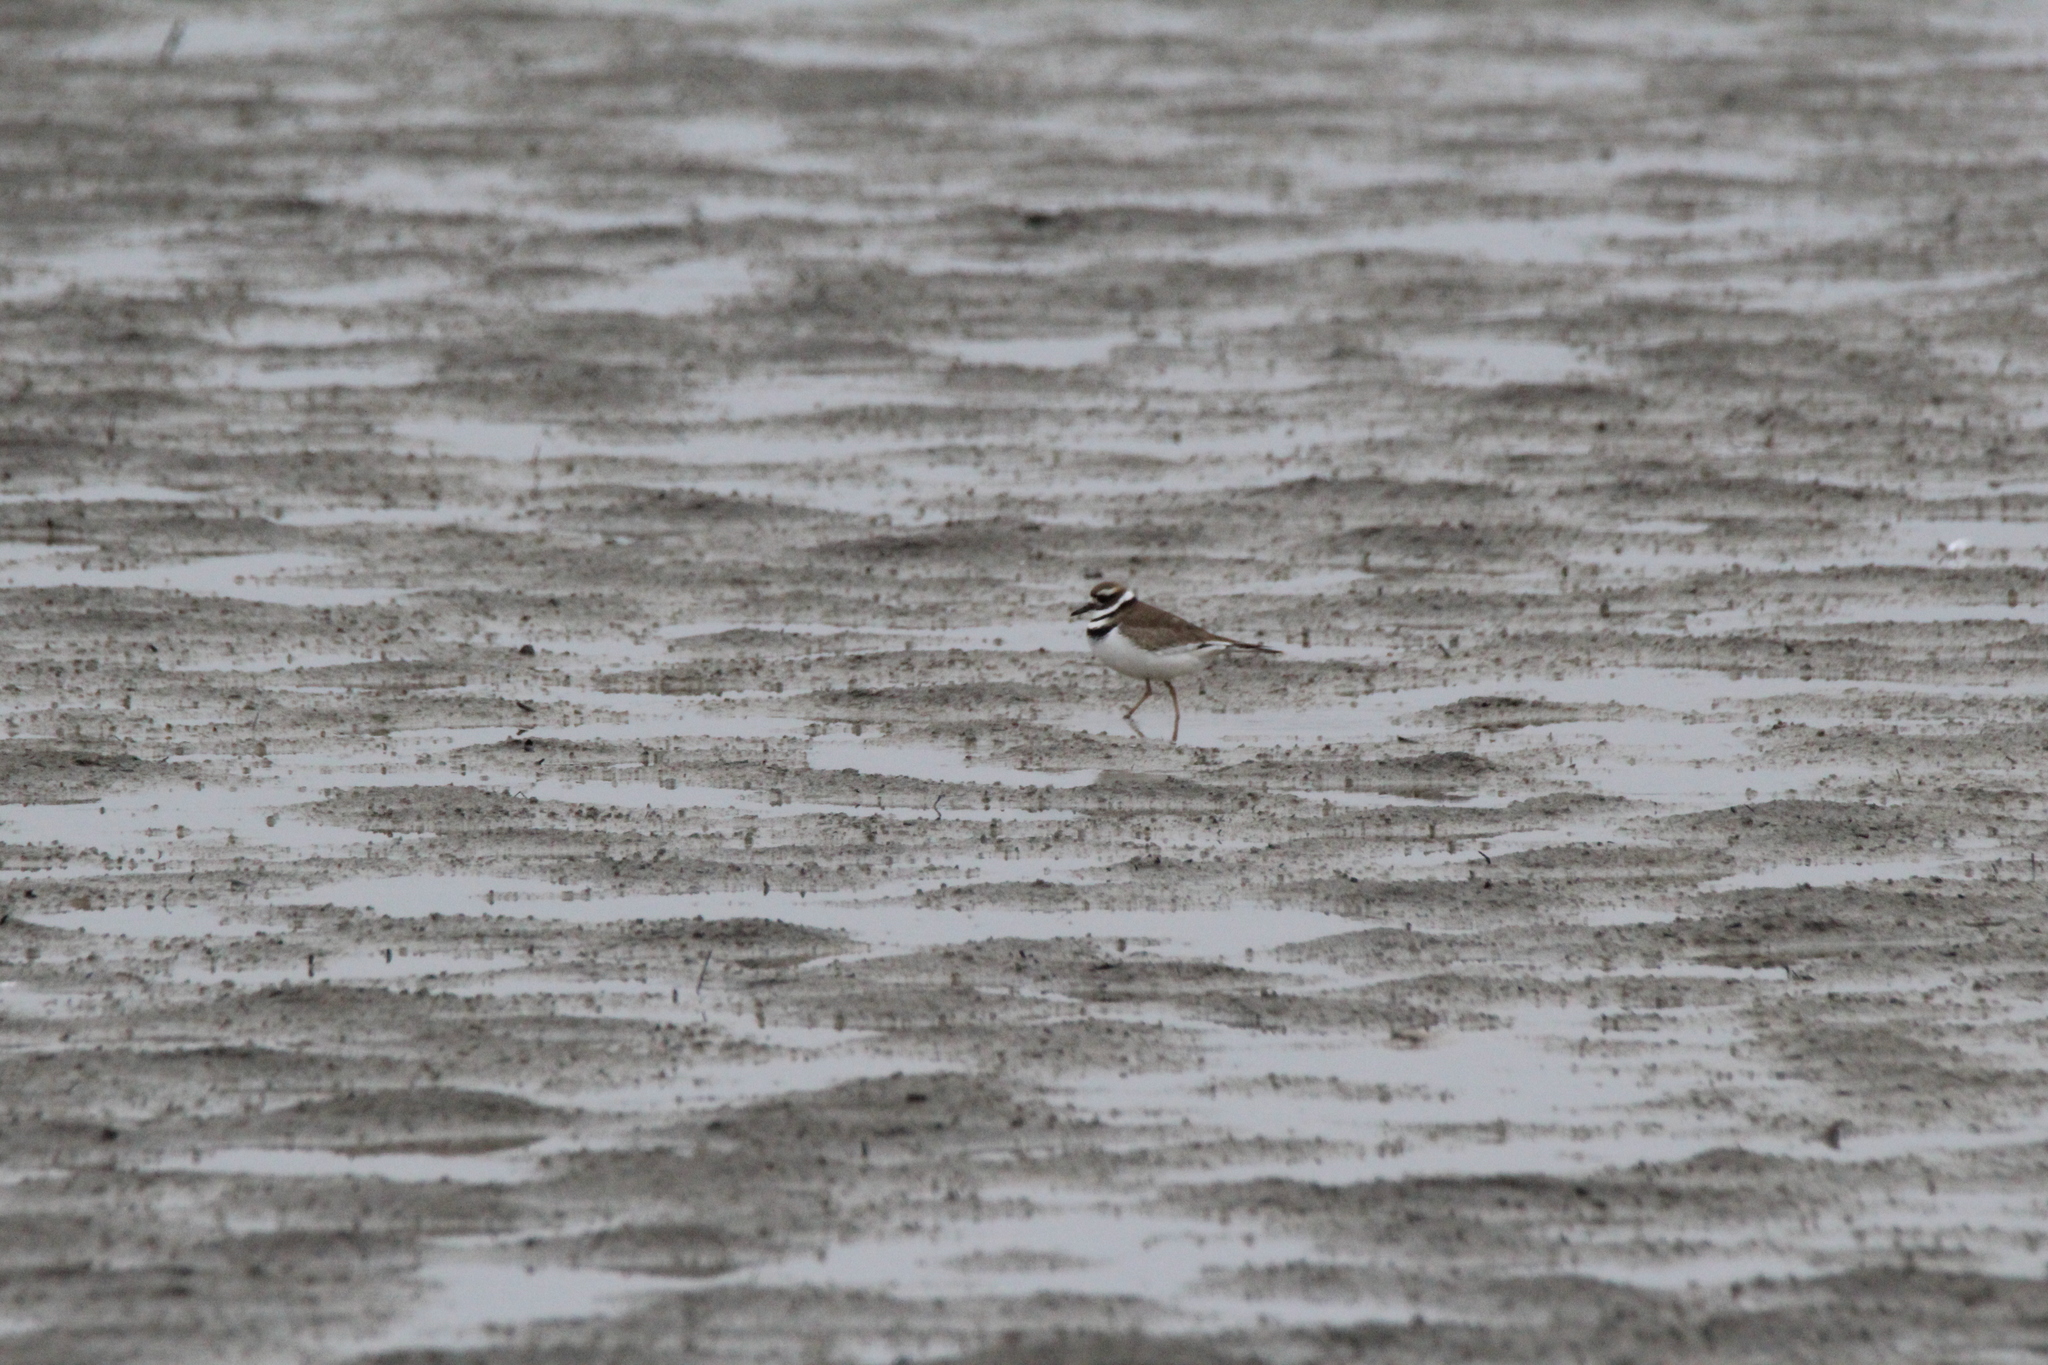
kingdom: Animalia
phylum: Chordata
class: Aves
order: Charadriiformes
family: Charadriidae
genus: Charadrius
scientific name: Charadrius vociferus
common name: Killdeer
